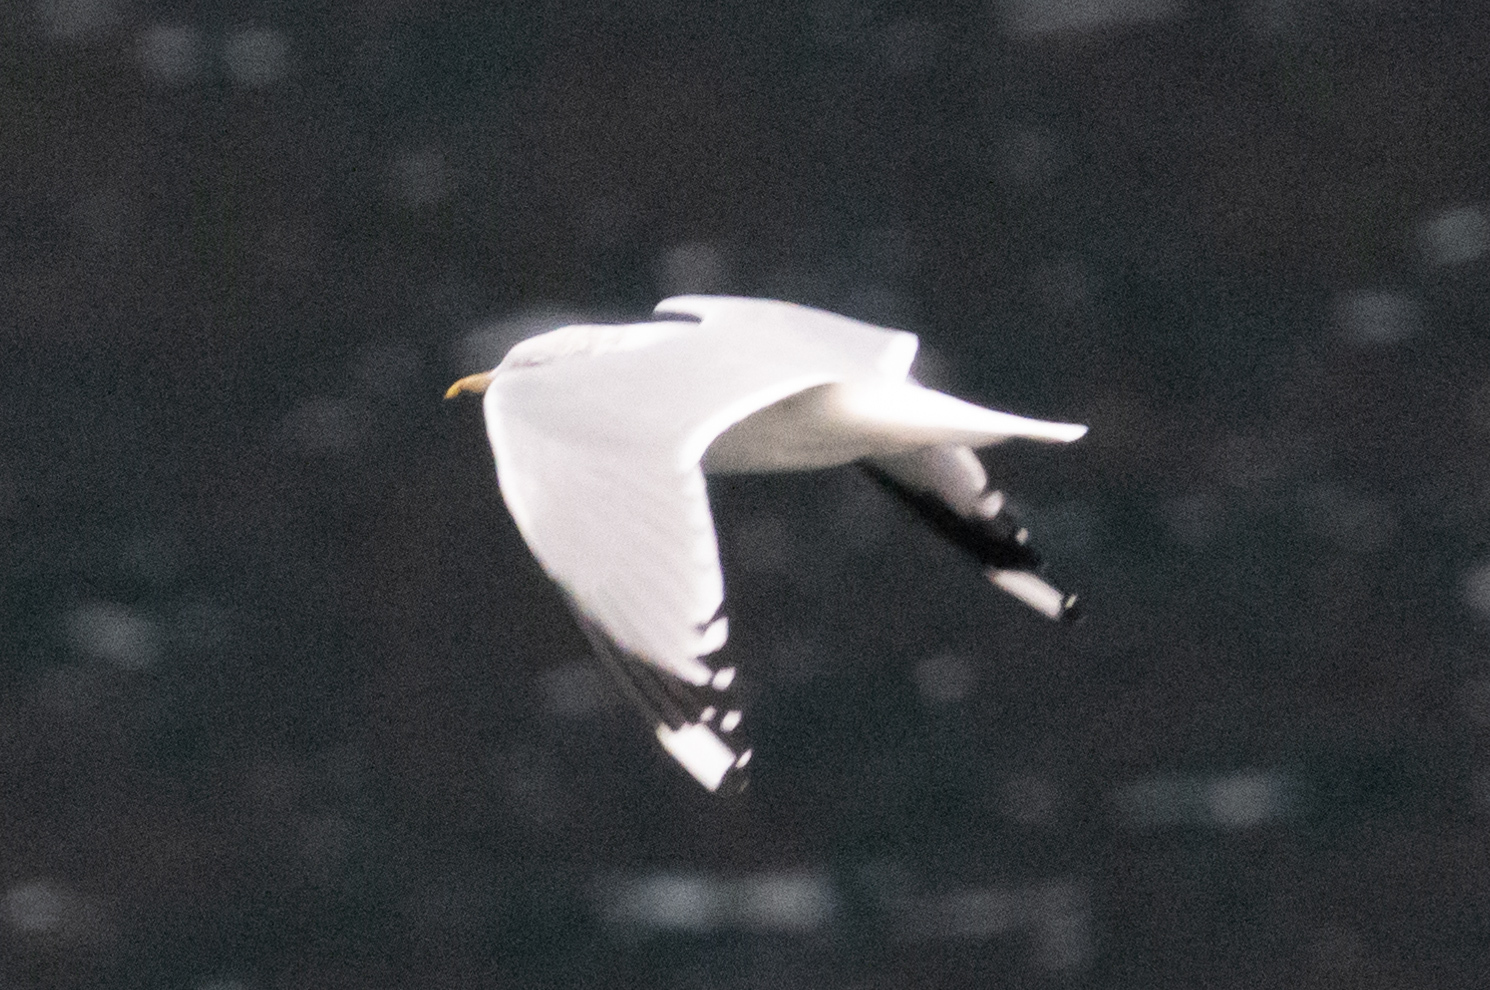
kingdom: Animalia
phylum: Chordata
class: Aves
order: Charadriiformes
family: Laridae
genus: Larus
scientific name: Larus canus
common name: Mew gull
